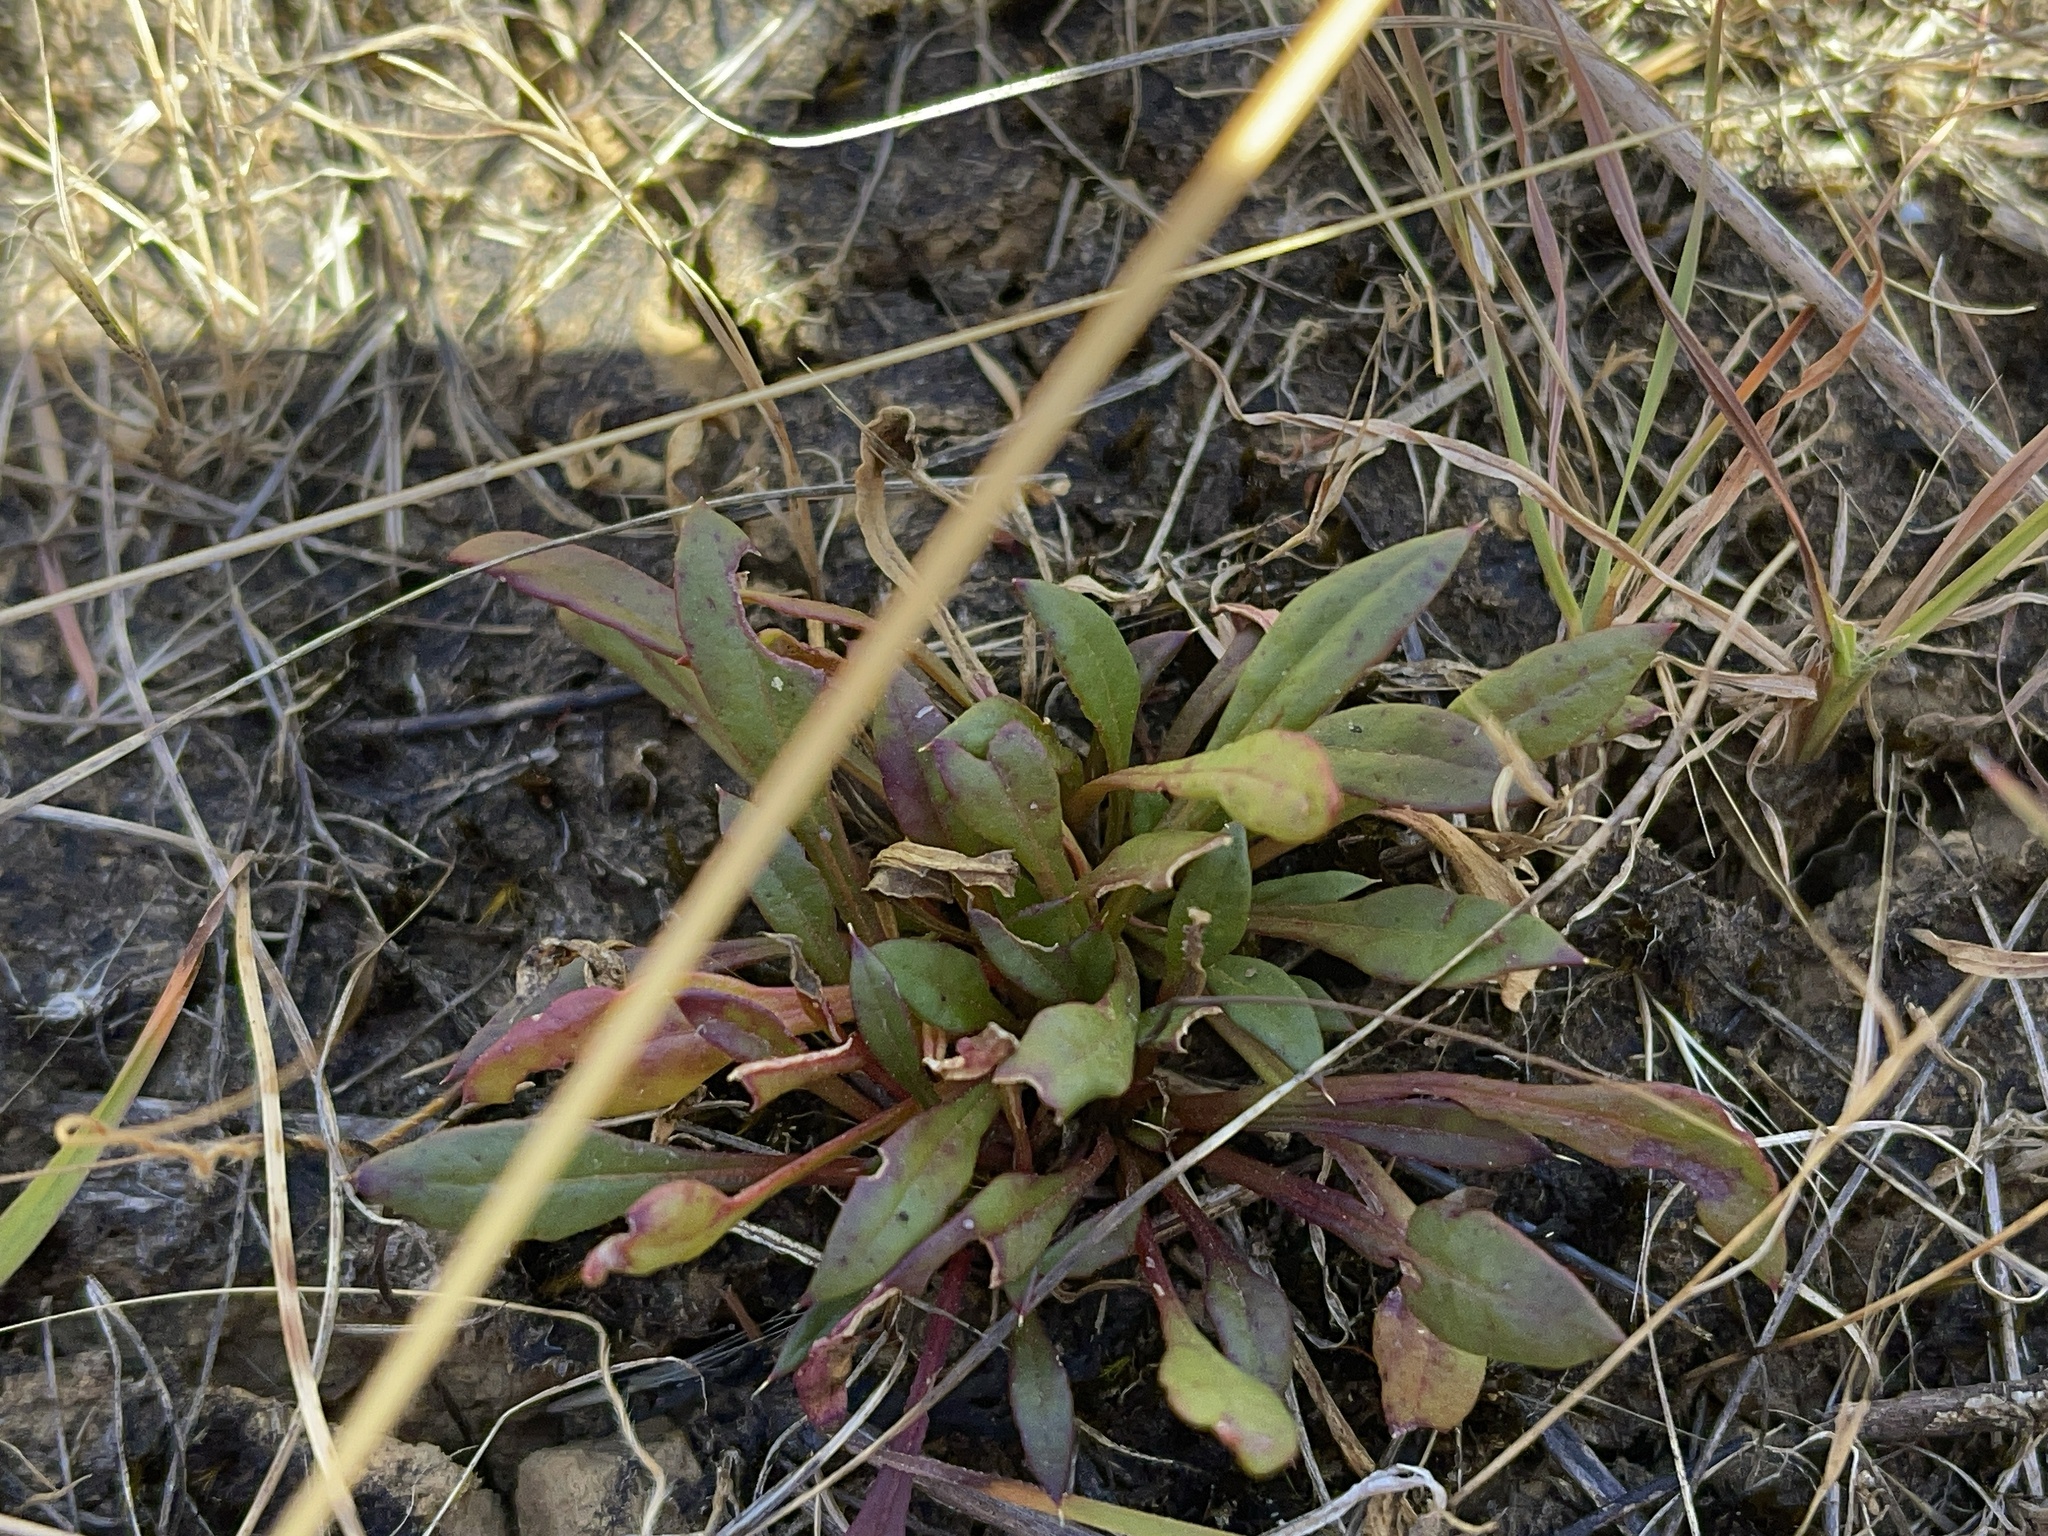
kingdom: Plantae
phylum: Tracheophyta
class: Magnoliopsida
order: Caryophyllales
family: Amaranthaceae
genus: Ptilotus
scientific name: Ptilotus spathulatus
